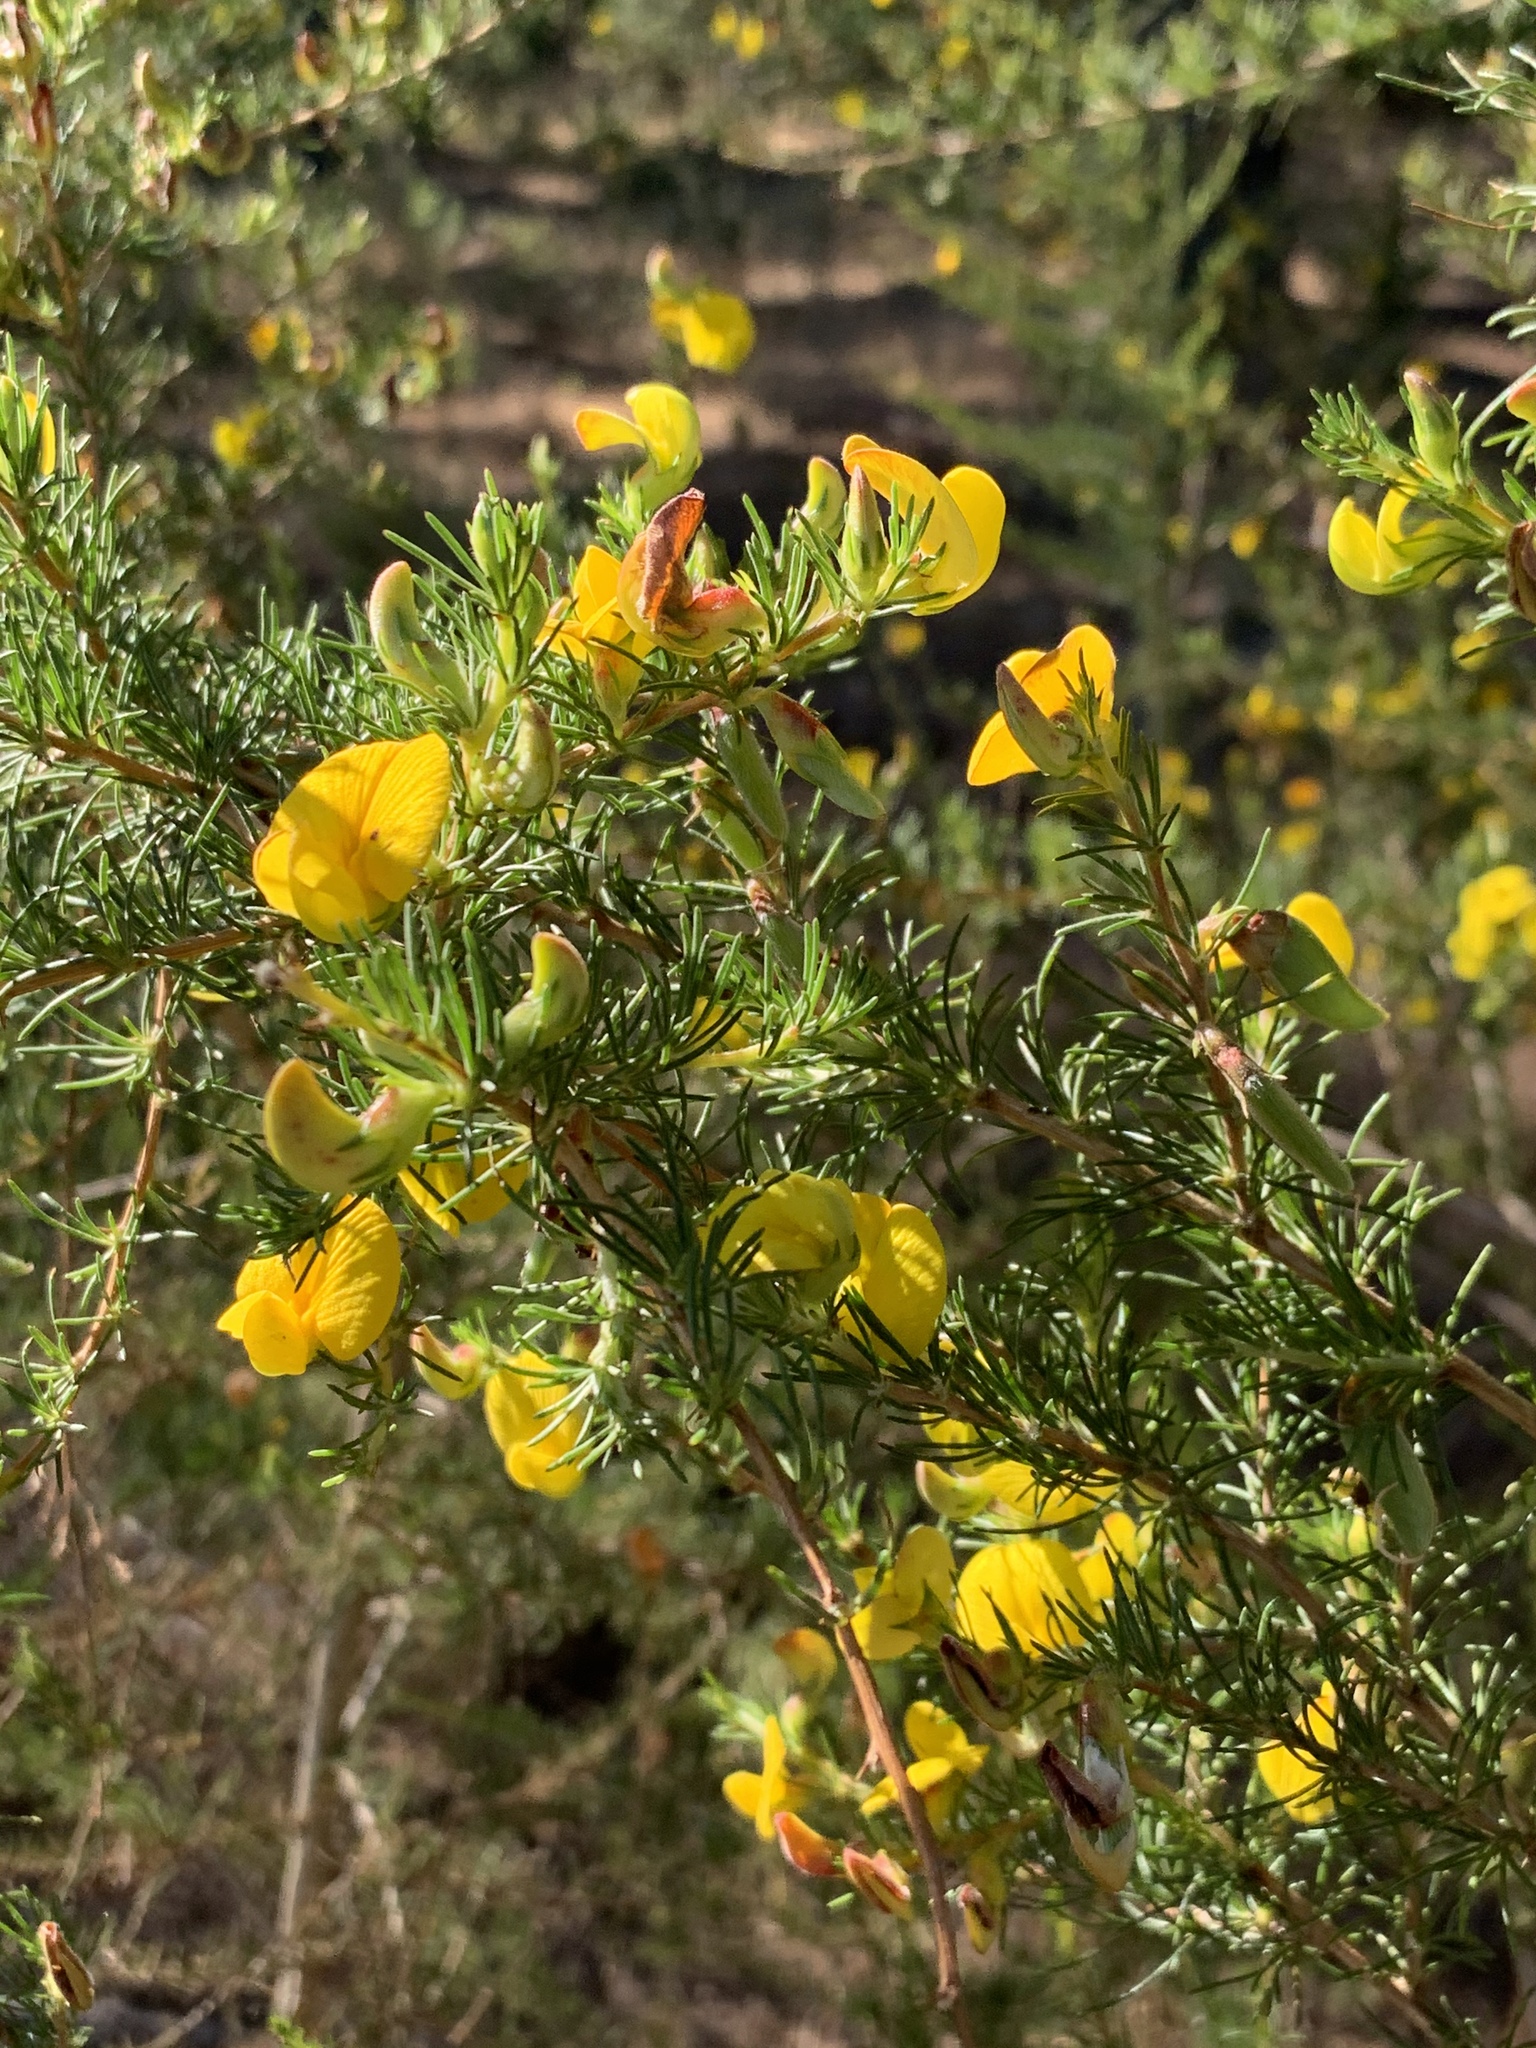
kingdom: Plantae
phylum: Tracheophyta
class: Magnoliopsida
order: Fabales
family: Fabaceae
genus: Aspalathus
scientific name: Aspalathus uniflora
